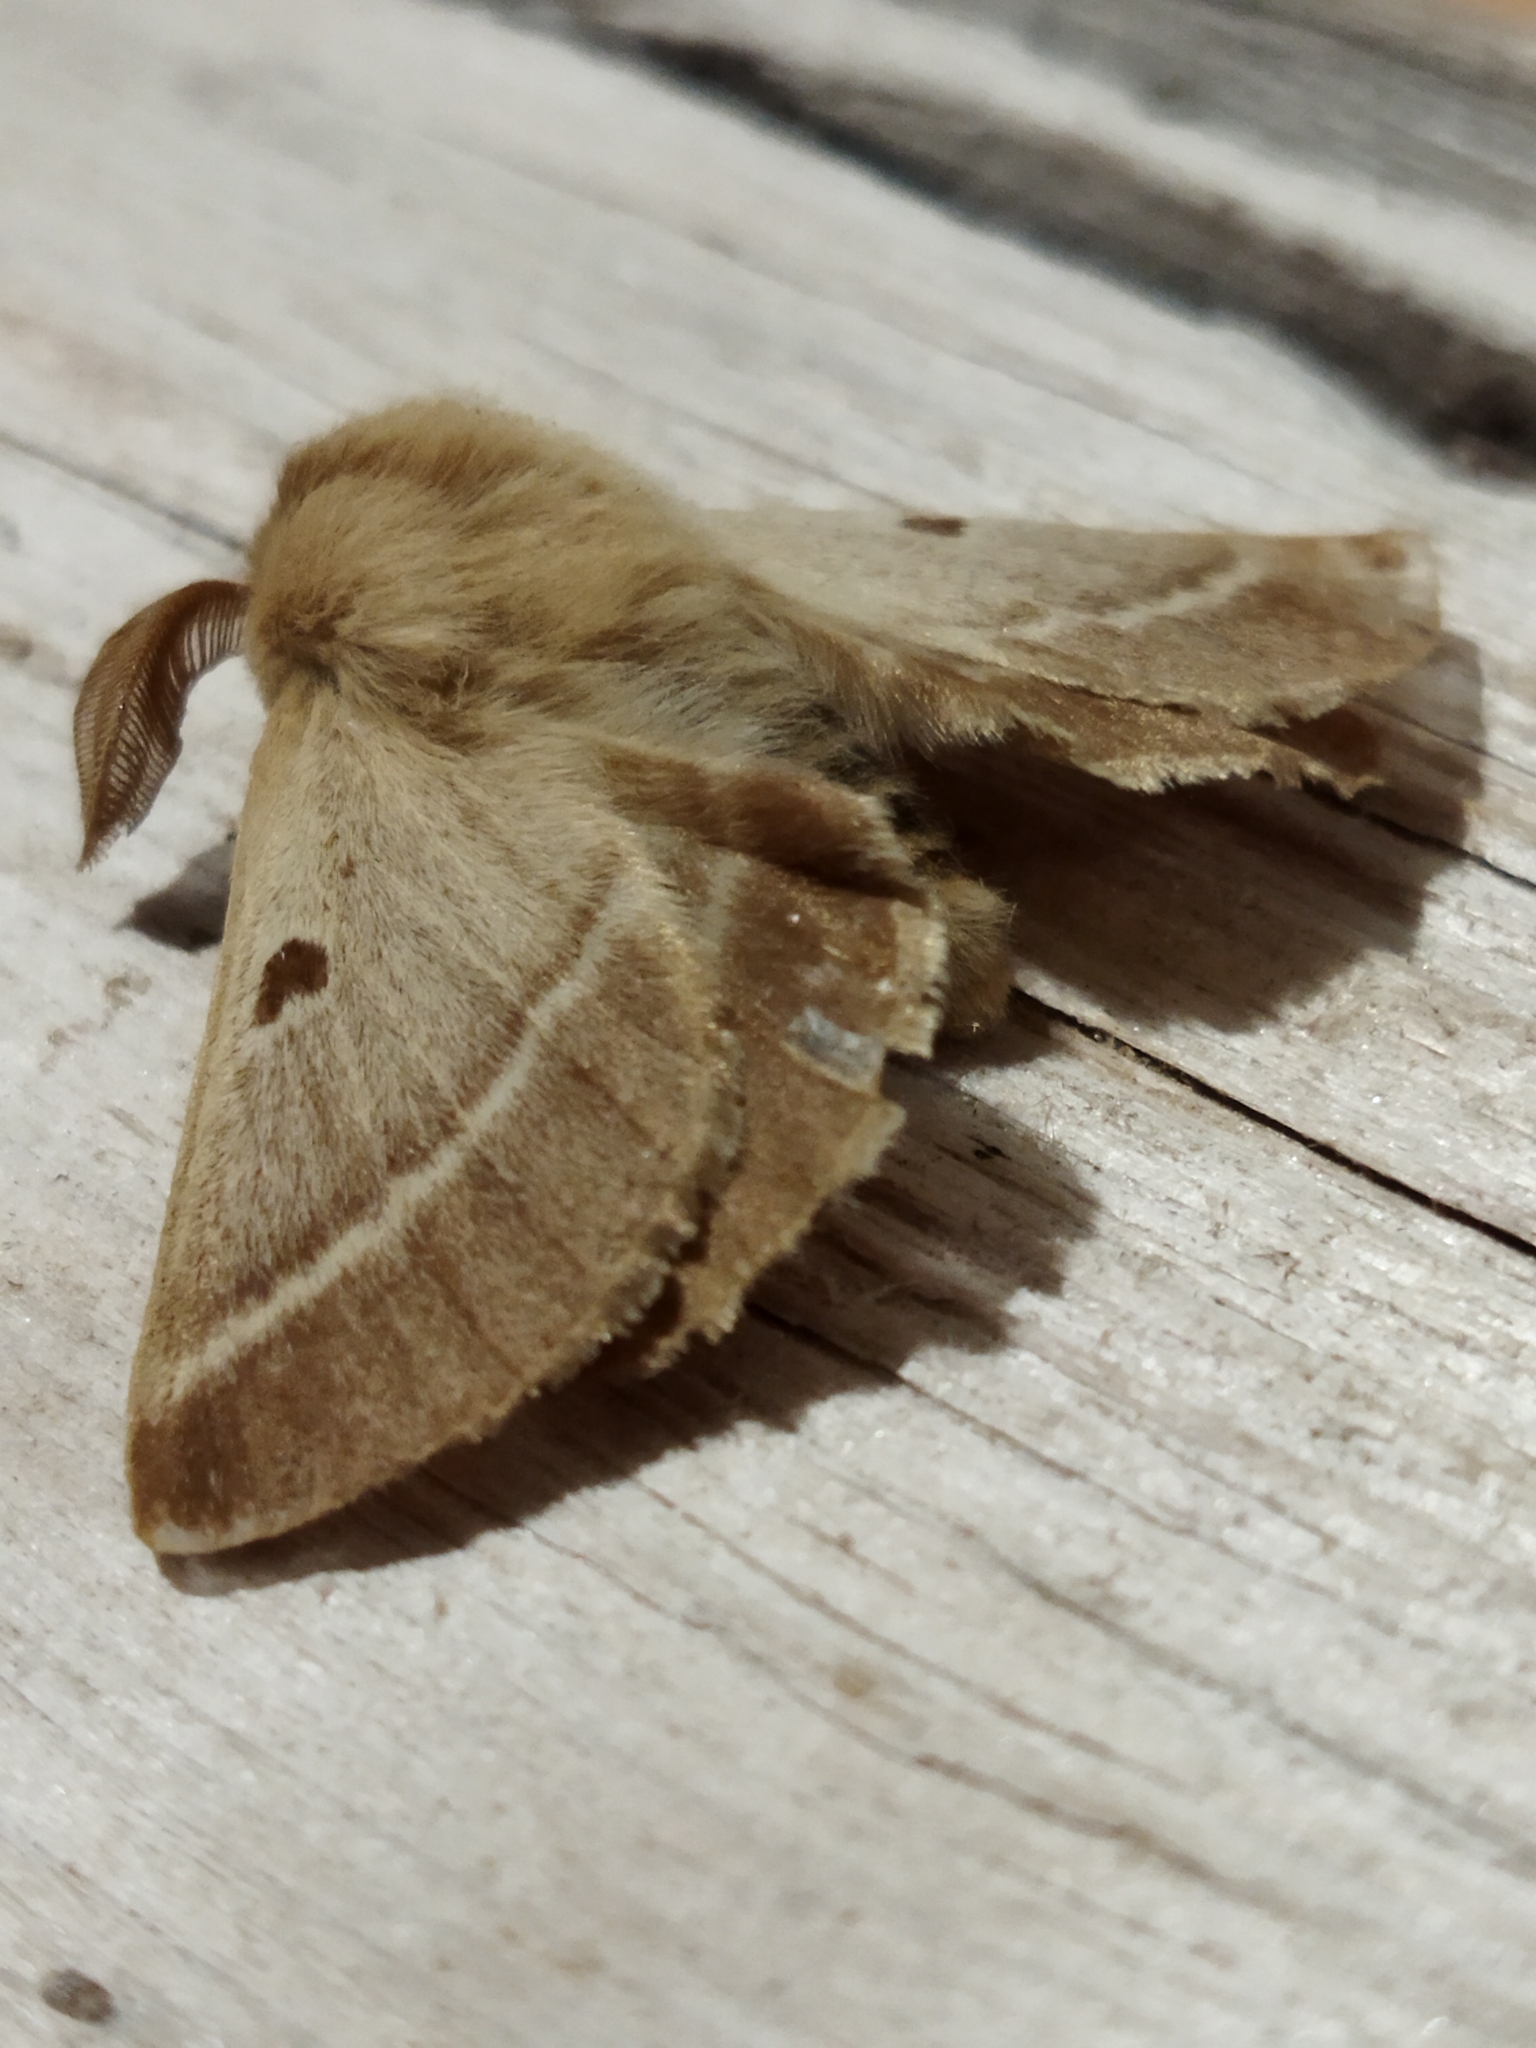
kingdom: Animalia
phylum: Arthropoda
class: Insecta
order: Lepidoptera
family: Brahmaeidae
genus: Lemonia
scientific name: Lemonia balcanica
